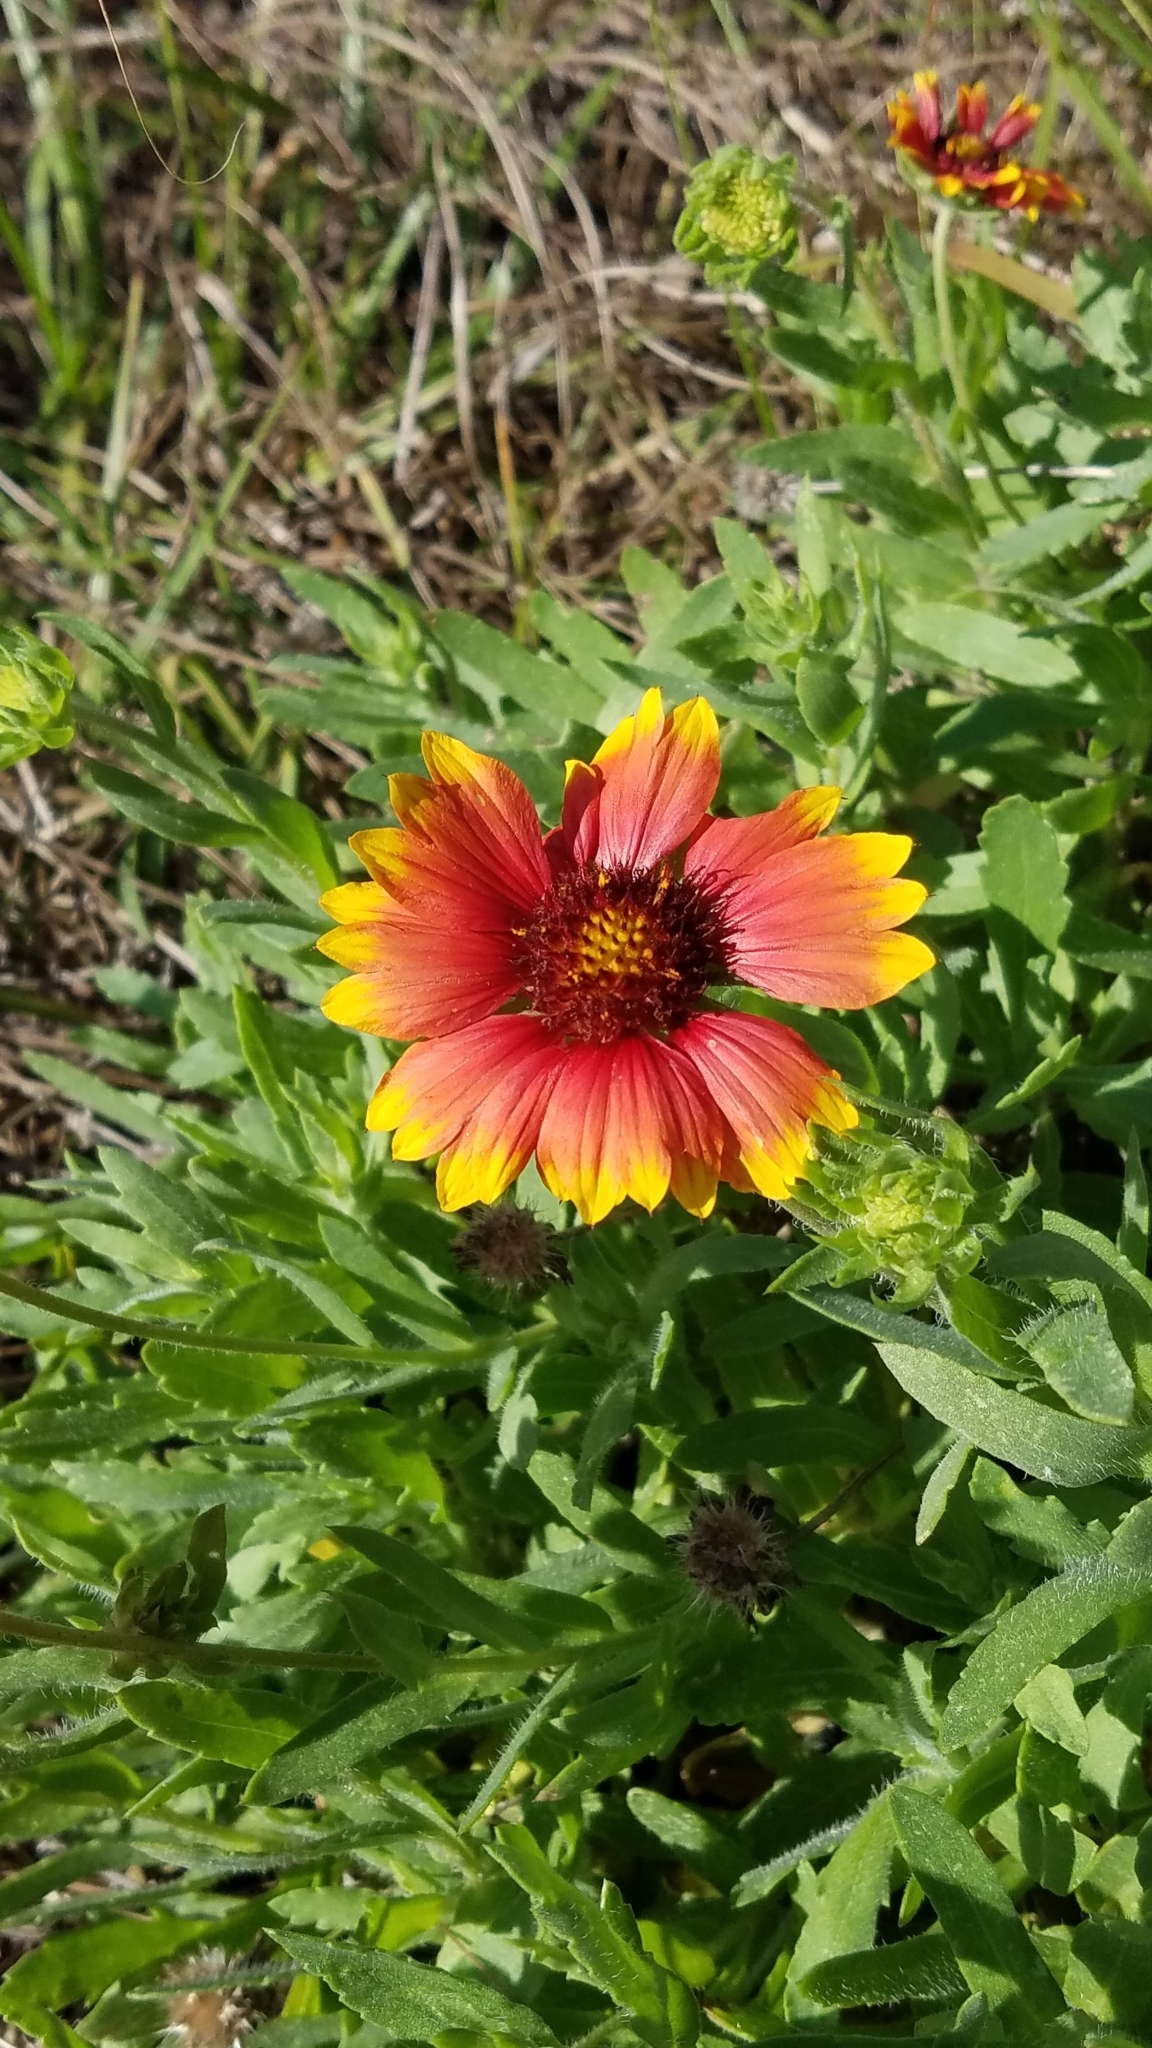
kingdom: Plantae
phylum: Tracheophyta
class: Magnoliopsida
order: Asterales
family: Asteraceae
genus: Gaillardia
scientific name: Gaillardia pulchella
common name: Firewheel
